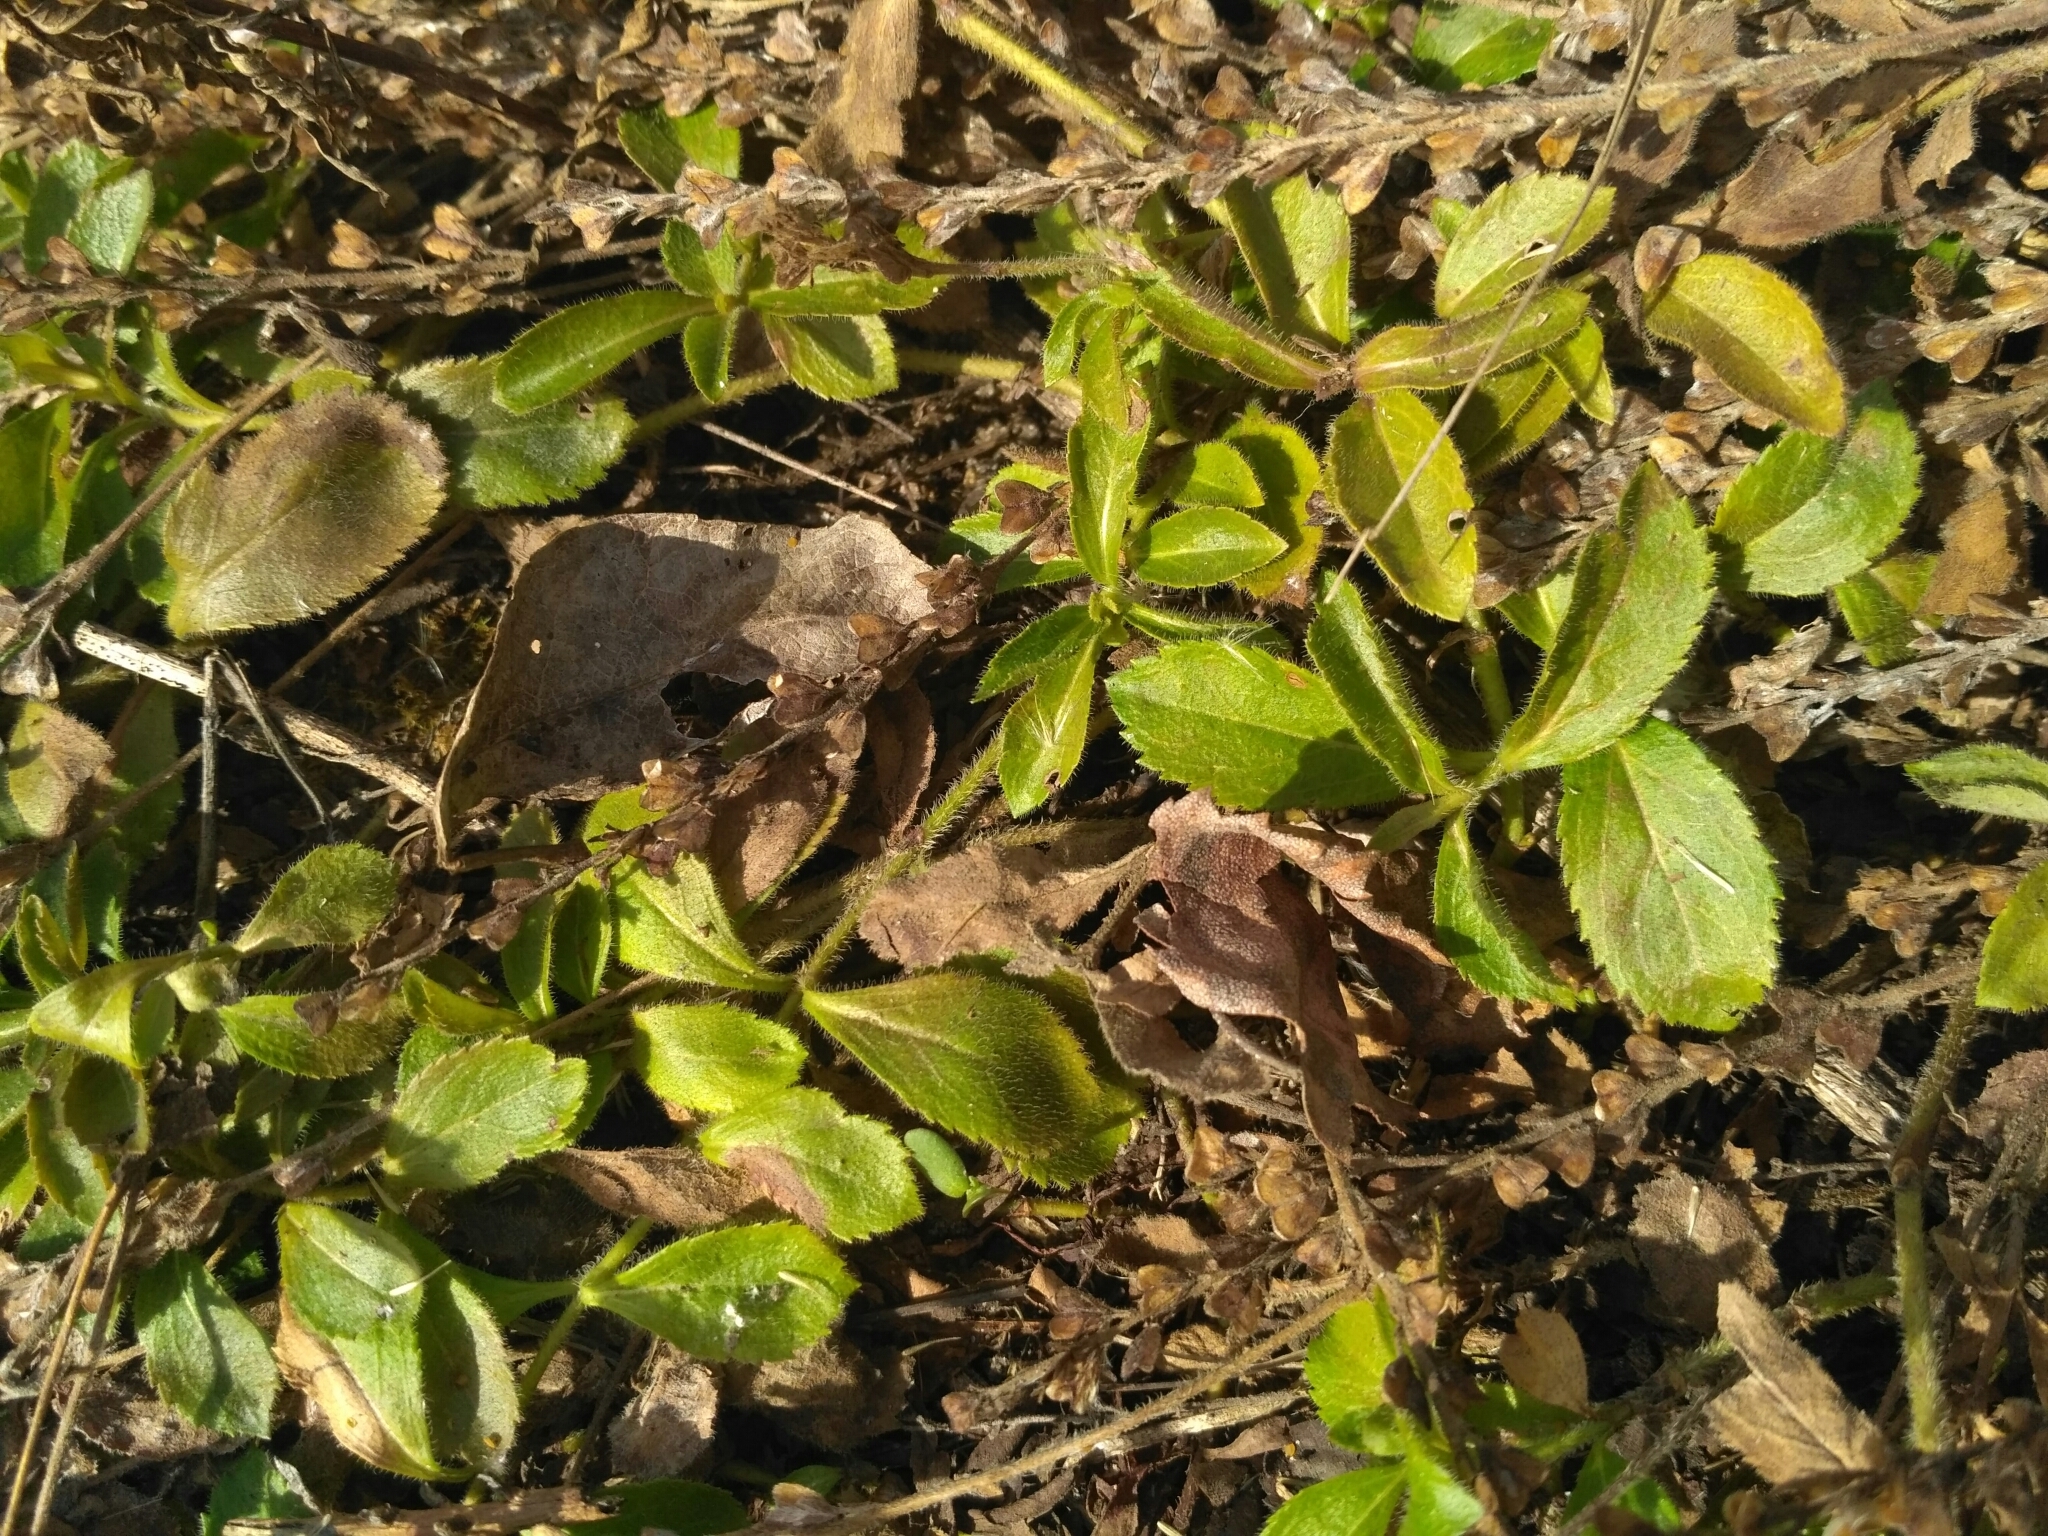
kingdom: Plantae
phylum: Tracheophyta
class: Magnoliopsida
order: Lamiales
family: Plantaginaceae
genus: Veronica
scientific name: Veronica officinalis
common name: Common speedwell
